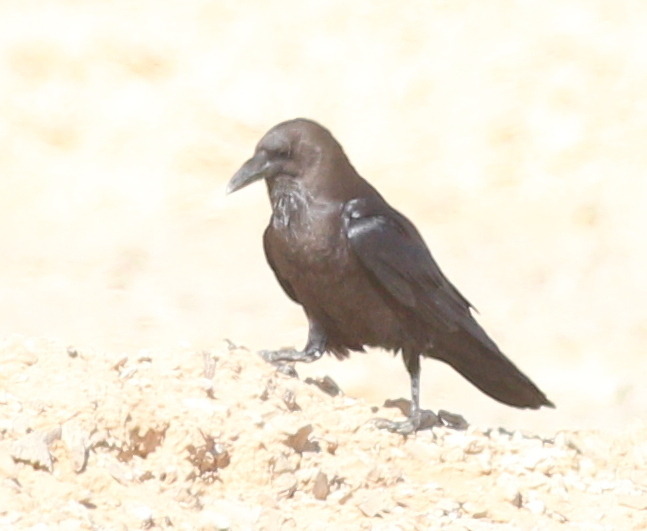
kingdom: Animalia
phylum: Chordata
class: Aves
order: Passeriformes
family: Corvidae
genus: Corvus
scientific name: Corvus ruficollis
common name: Brown-necked raven
